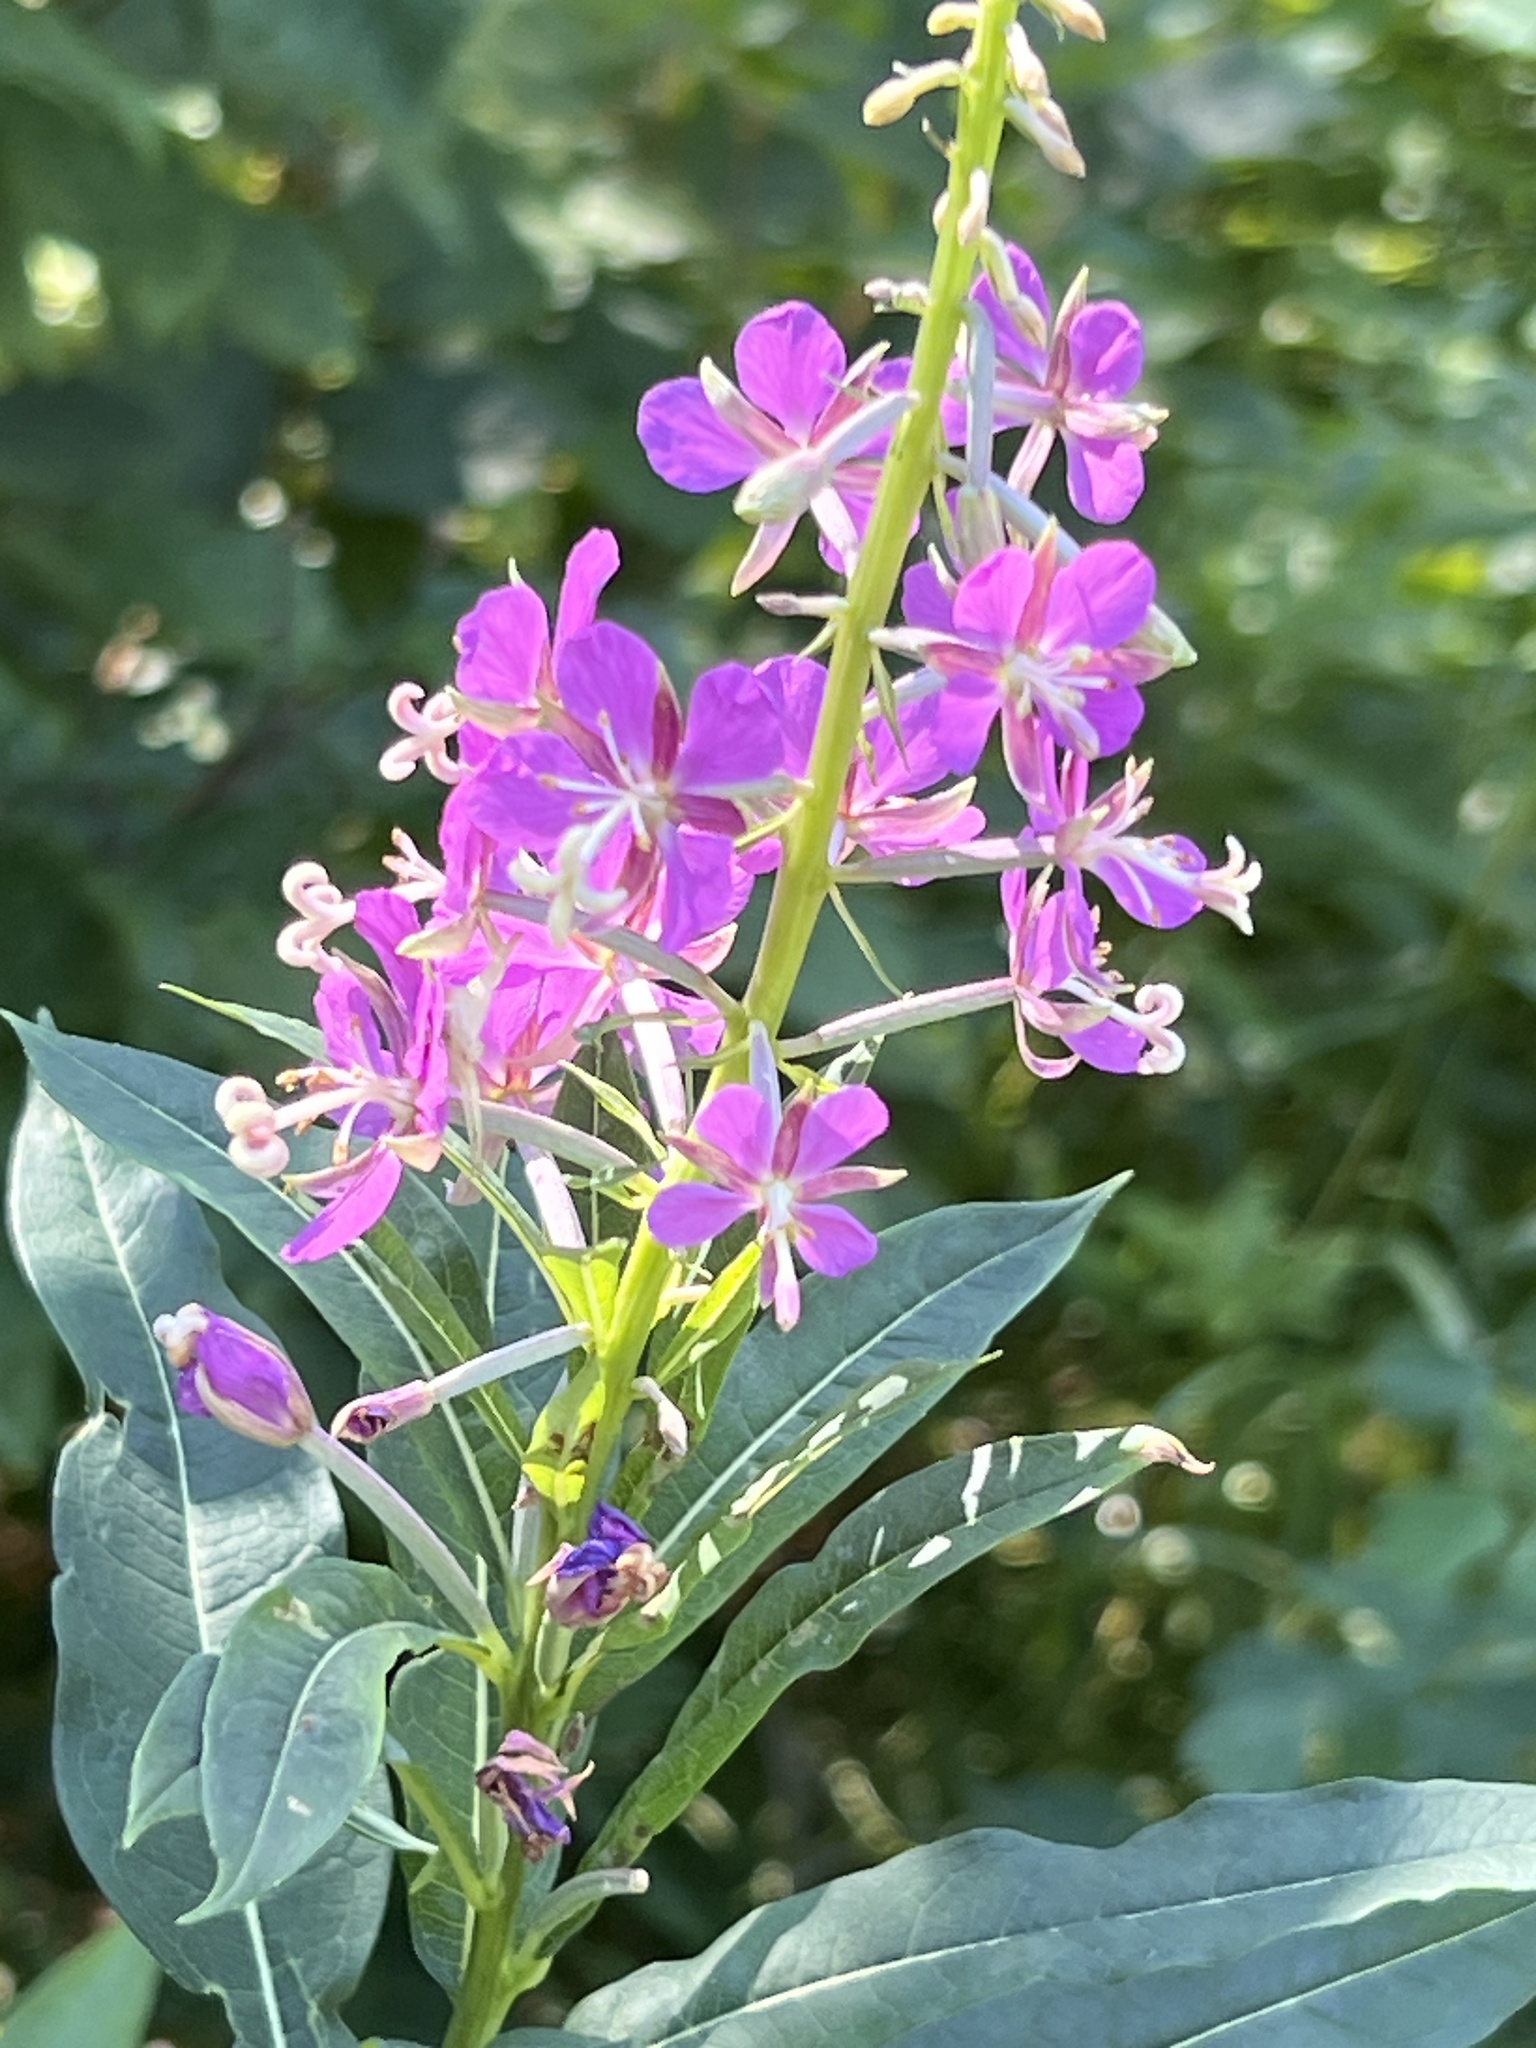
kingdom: Plantae
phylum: Tracheophyta
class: Magnoliopsida
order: Myrtales
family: Onagraceae
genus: Chamaenerion
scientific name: Chamaenerion angustifolium
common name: Fireweed
